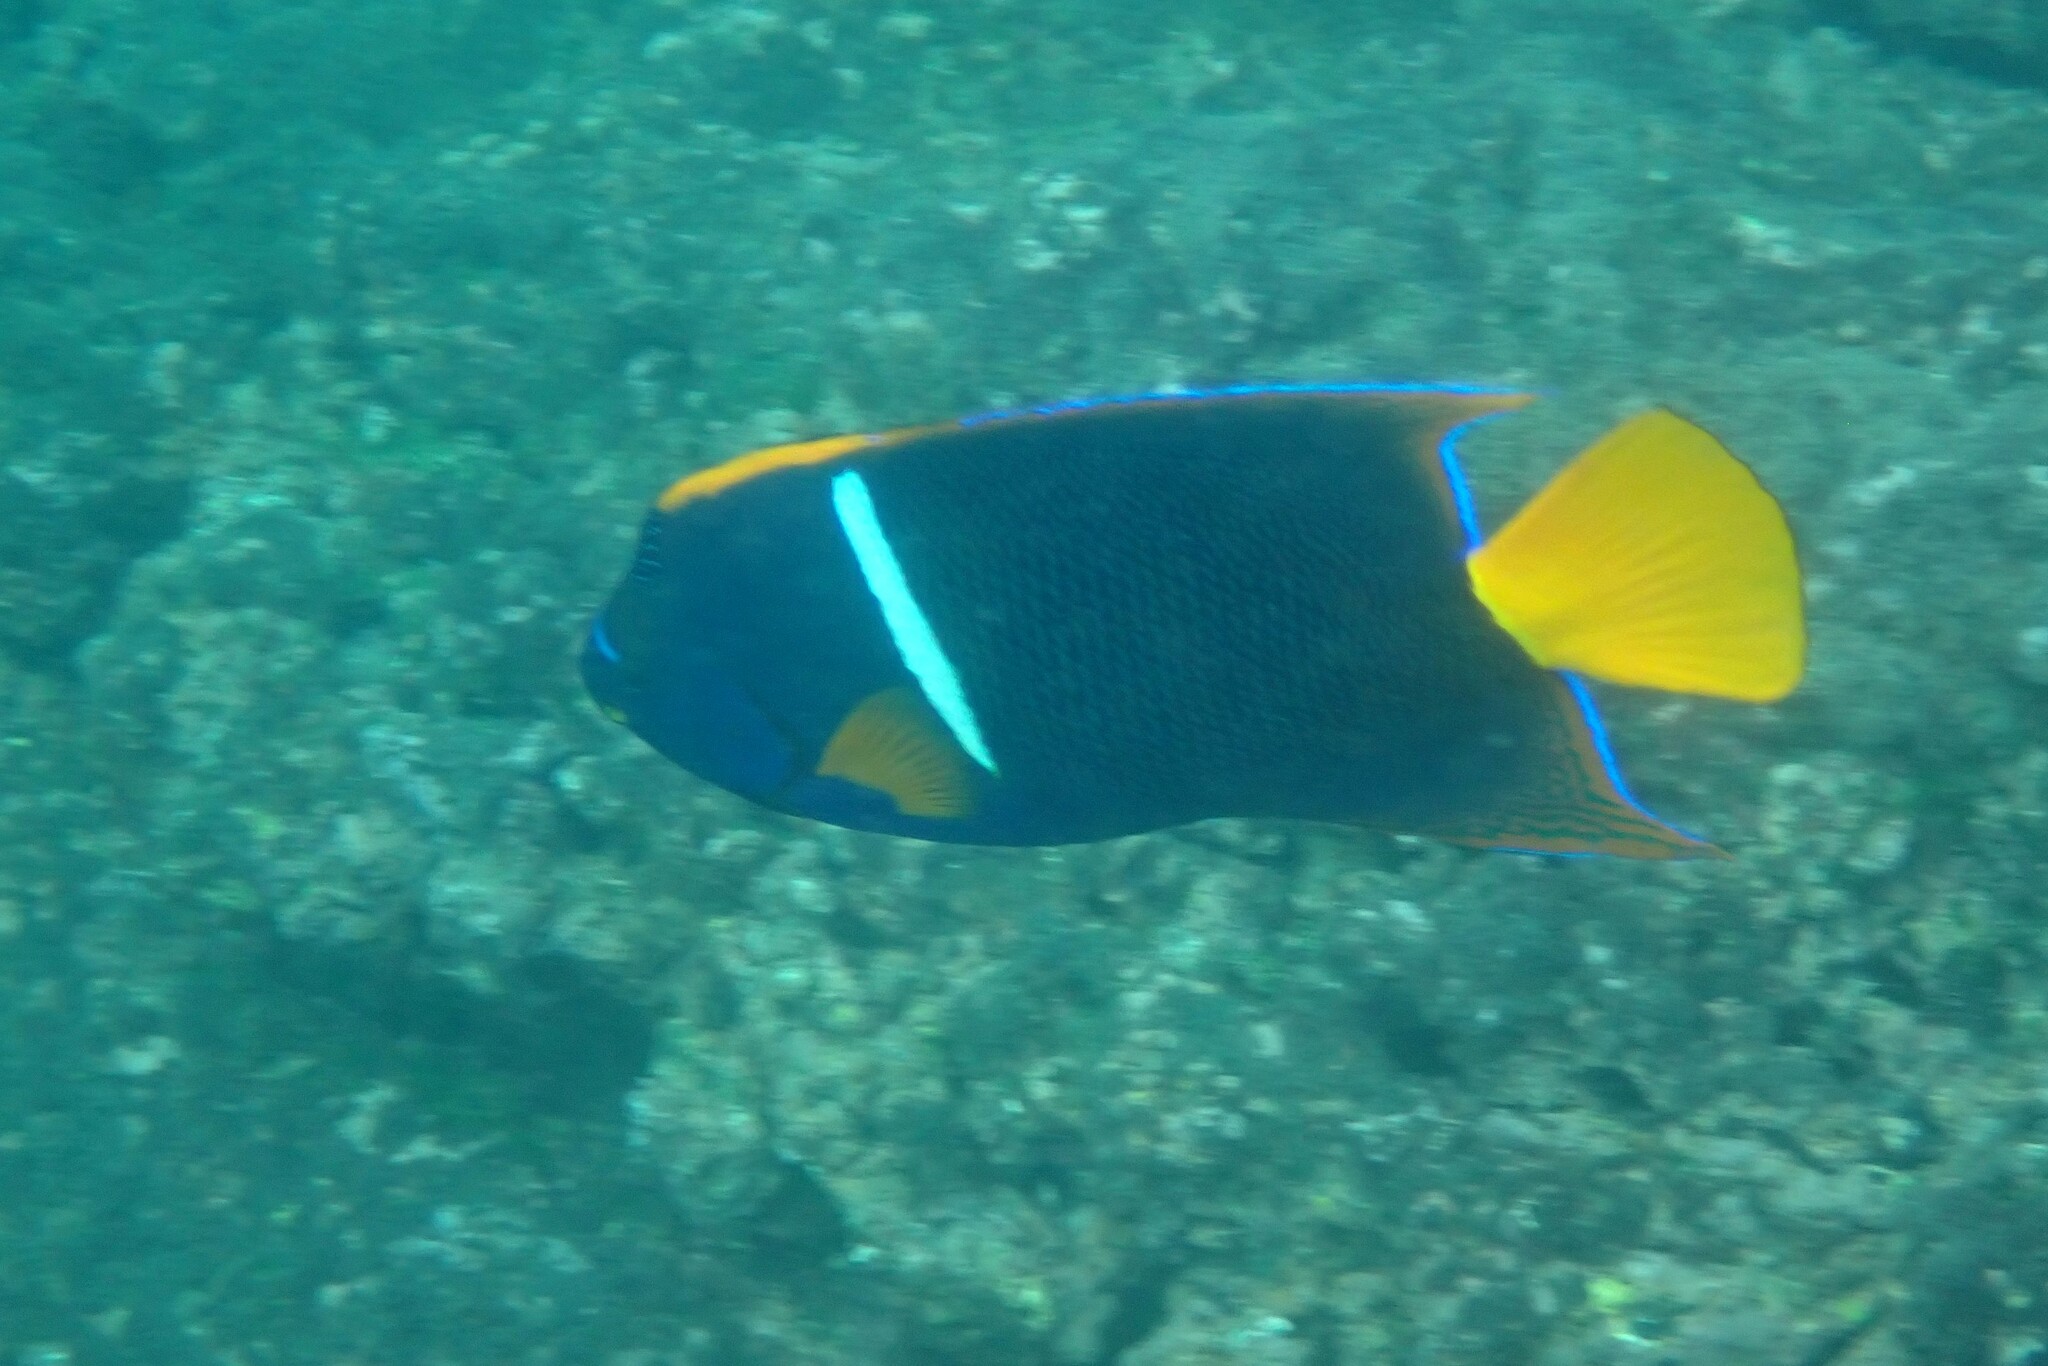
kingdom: Animalia
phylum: Chordata
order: Perciformes
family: Pomacanthidae
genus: Holacanthus
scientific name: Holacanthus passer
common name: King angelfish
